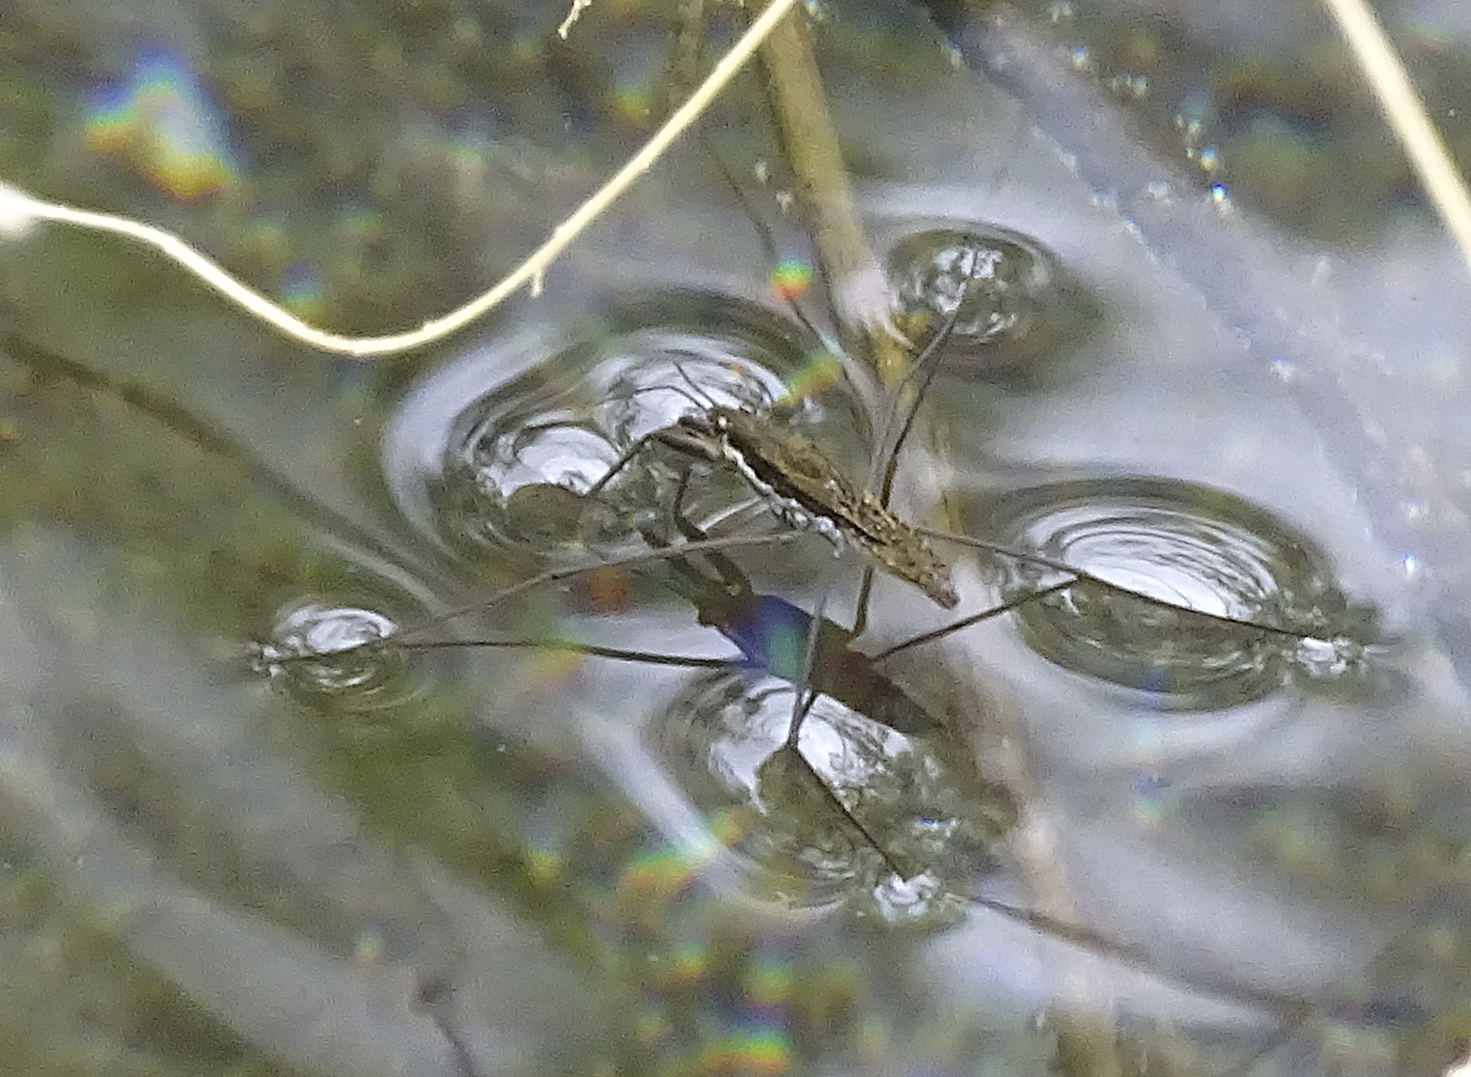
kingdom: Animalia
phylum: Arthropoda
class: Insecta
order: Hemiptera
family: Gerridae
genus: Aquarius
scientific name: Aquarius remigis
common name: Common water strider
